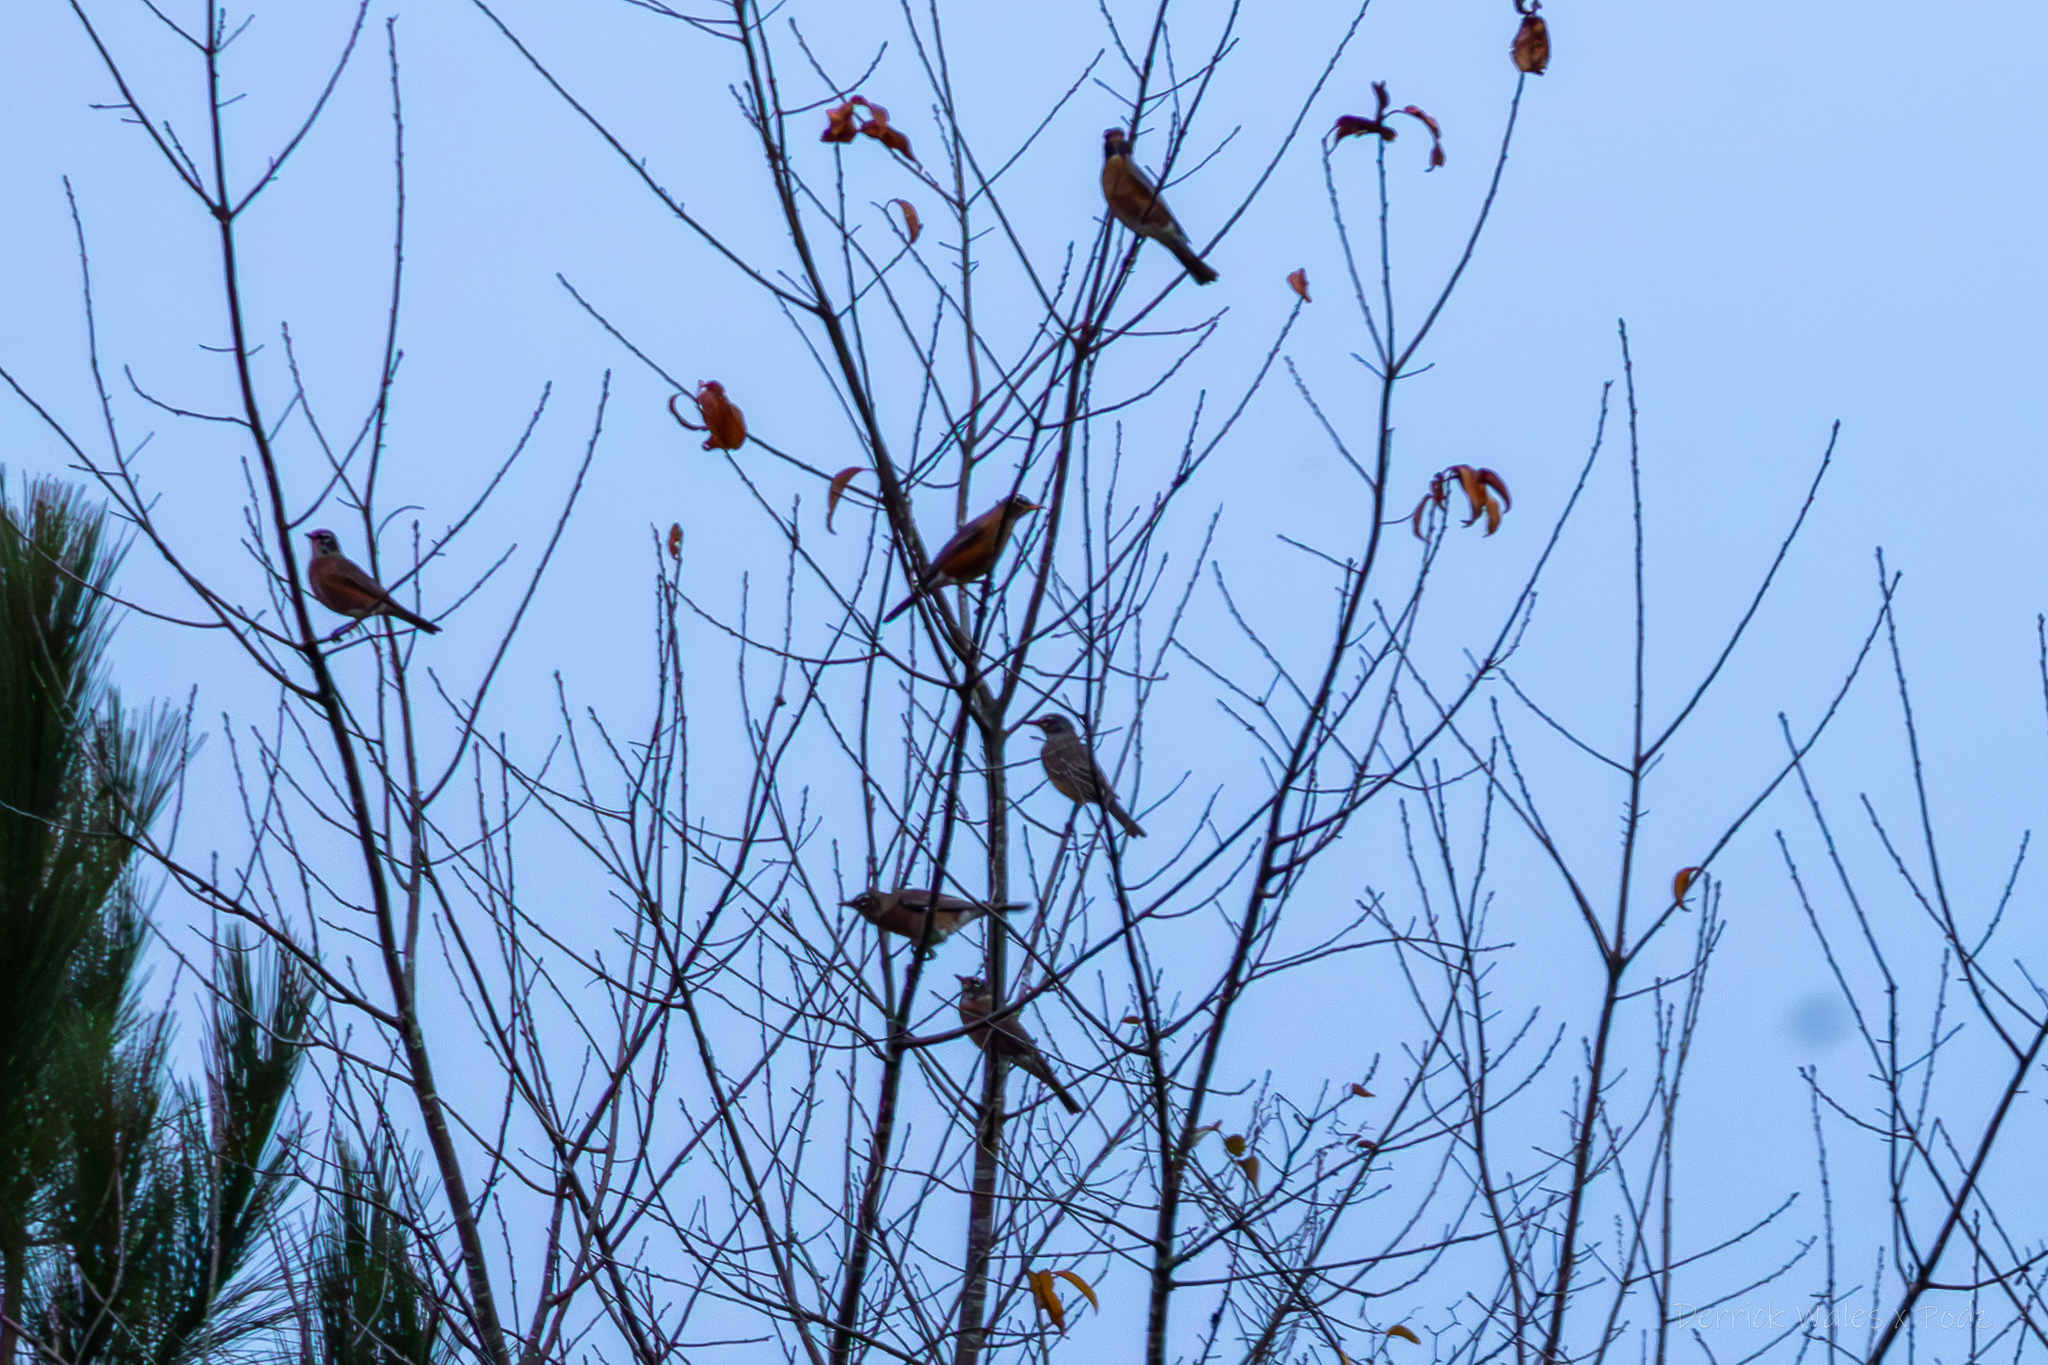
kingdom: Animalia
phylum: Chordata
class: Aves
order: Passeriformes
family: Turdidae
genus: Turdus
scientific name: Turdus migratorius
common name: American robin
